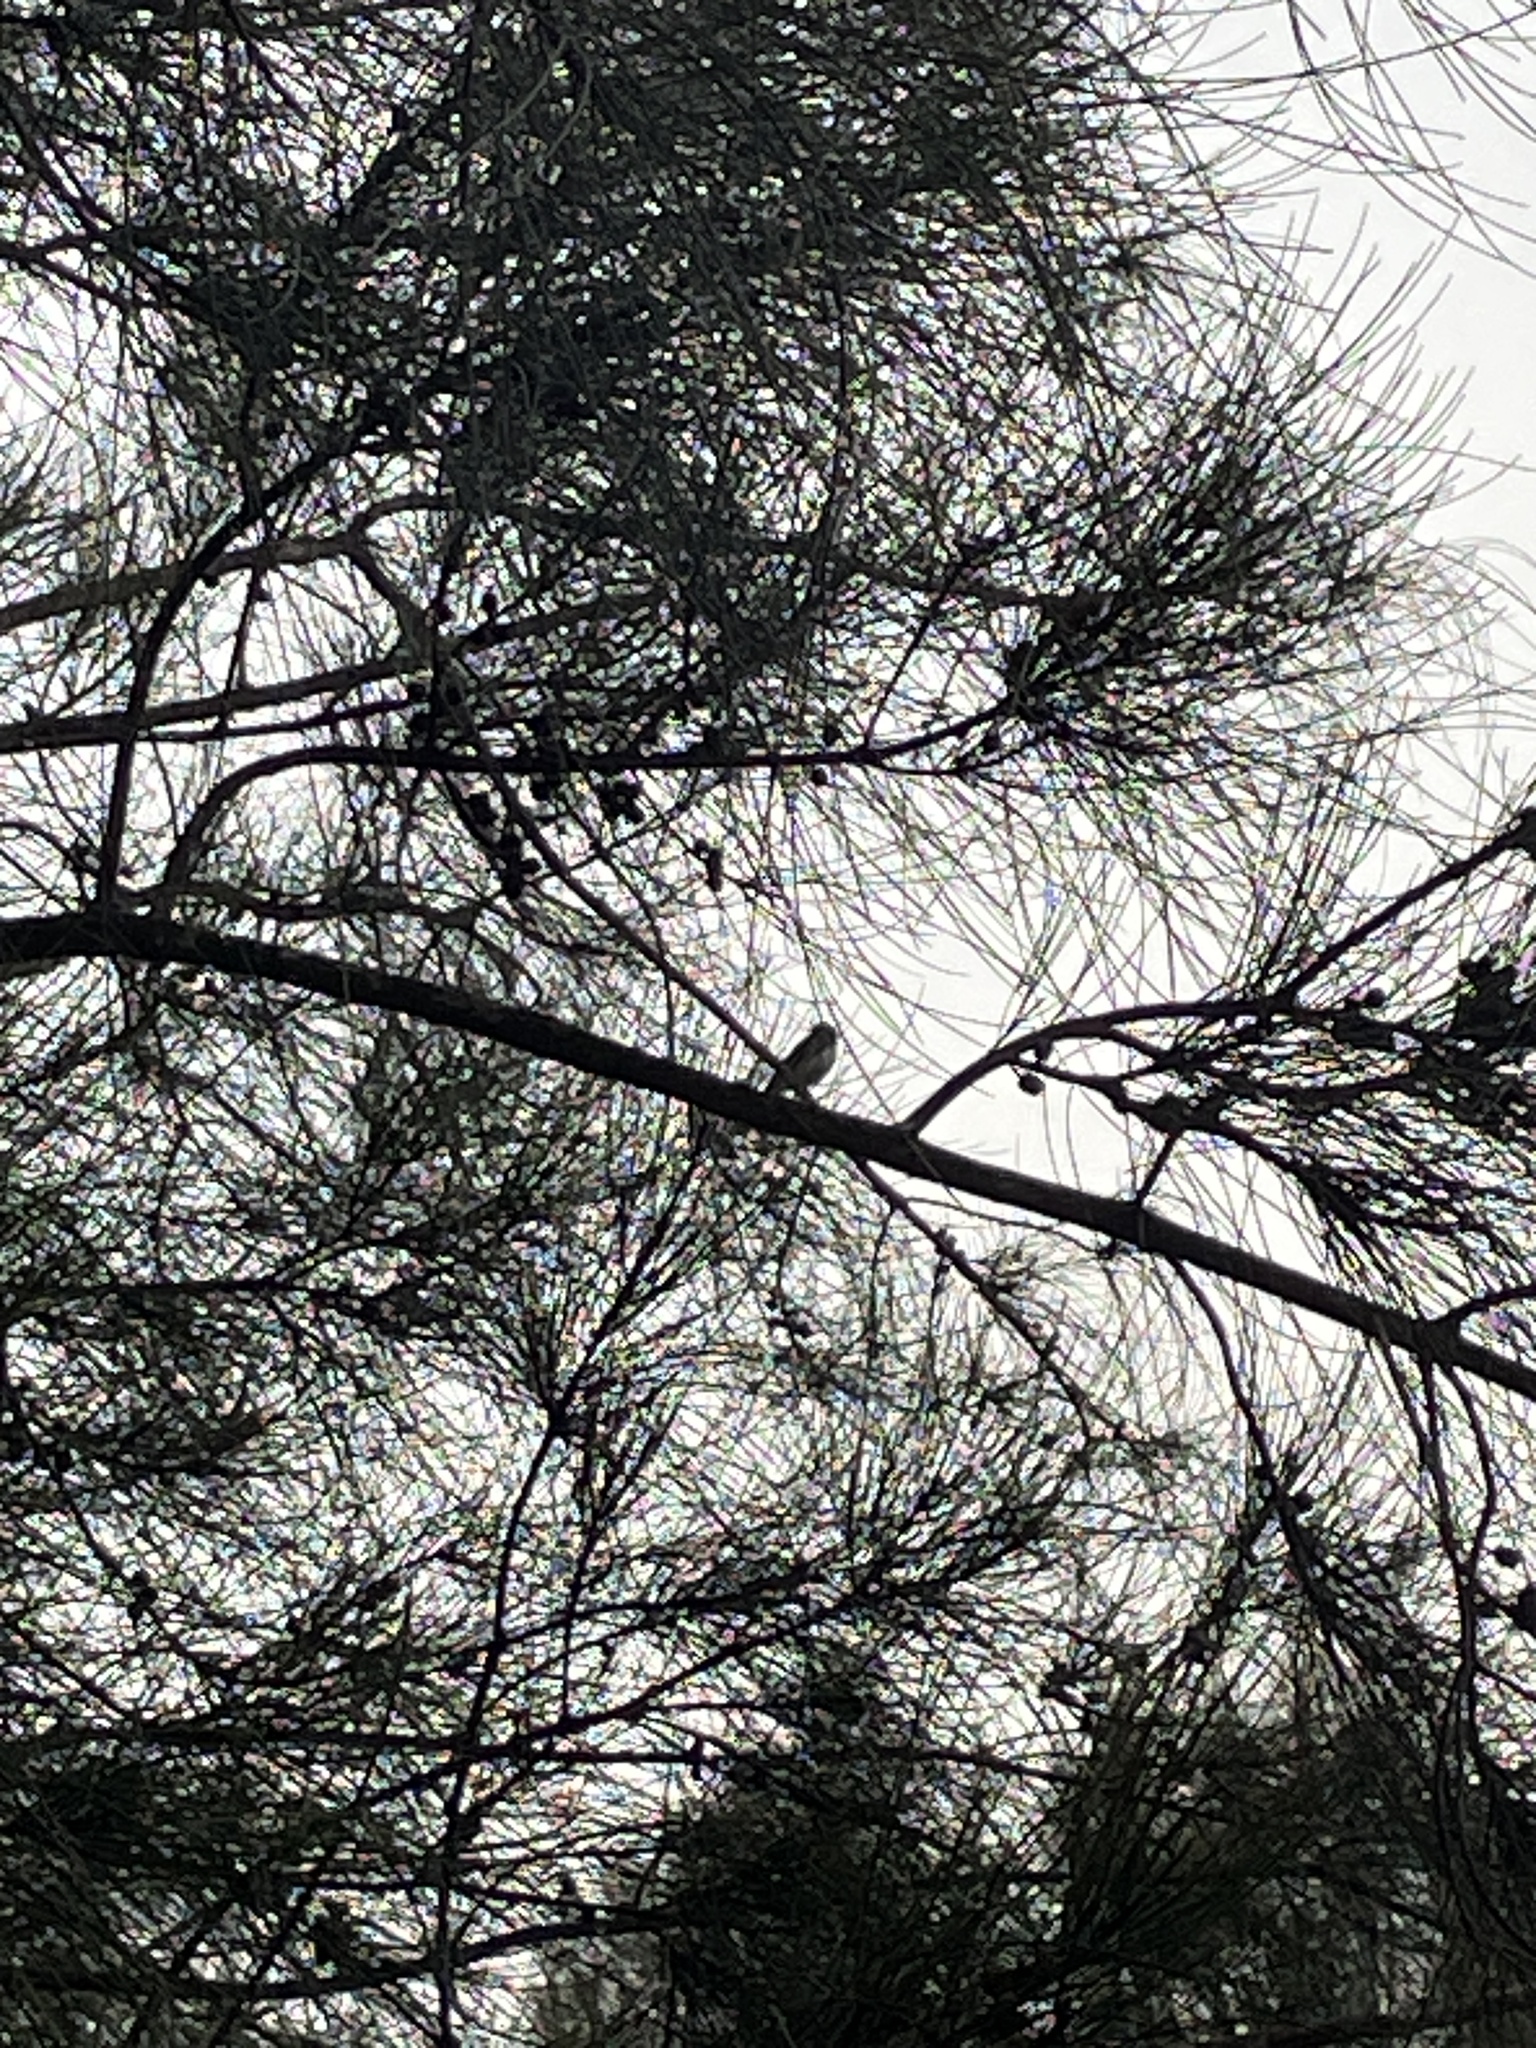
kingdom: Animalia
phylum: Chordata
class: Aves
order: Passeriformes
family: Rhipiduridae
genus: Rhipidura
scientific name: Rhipidura leucophrys
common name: Willie wagtail
